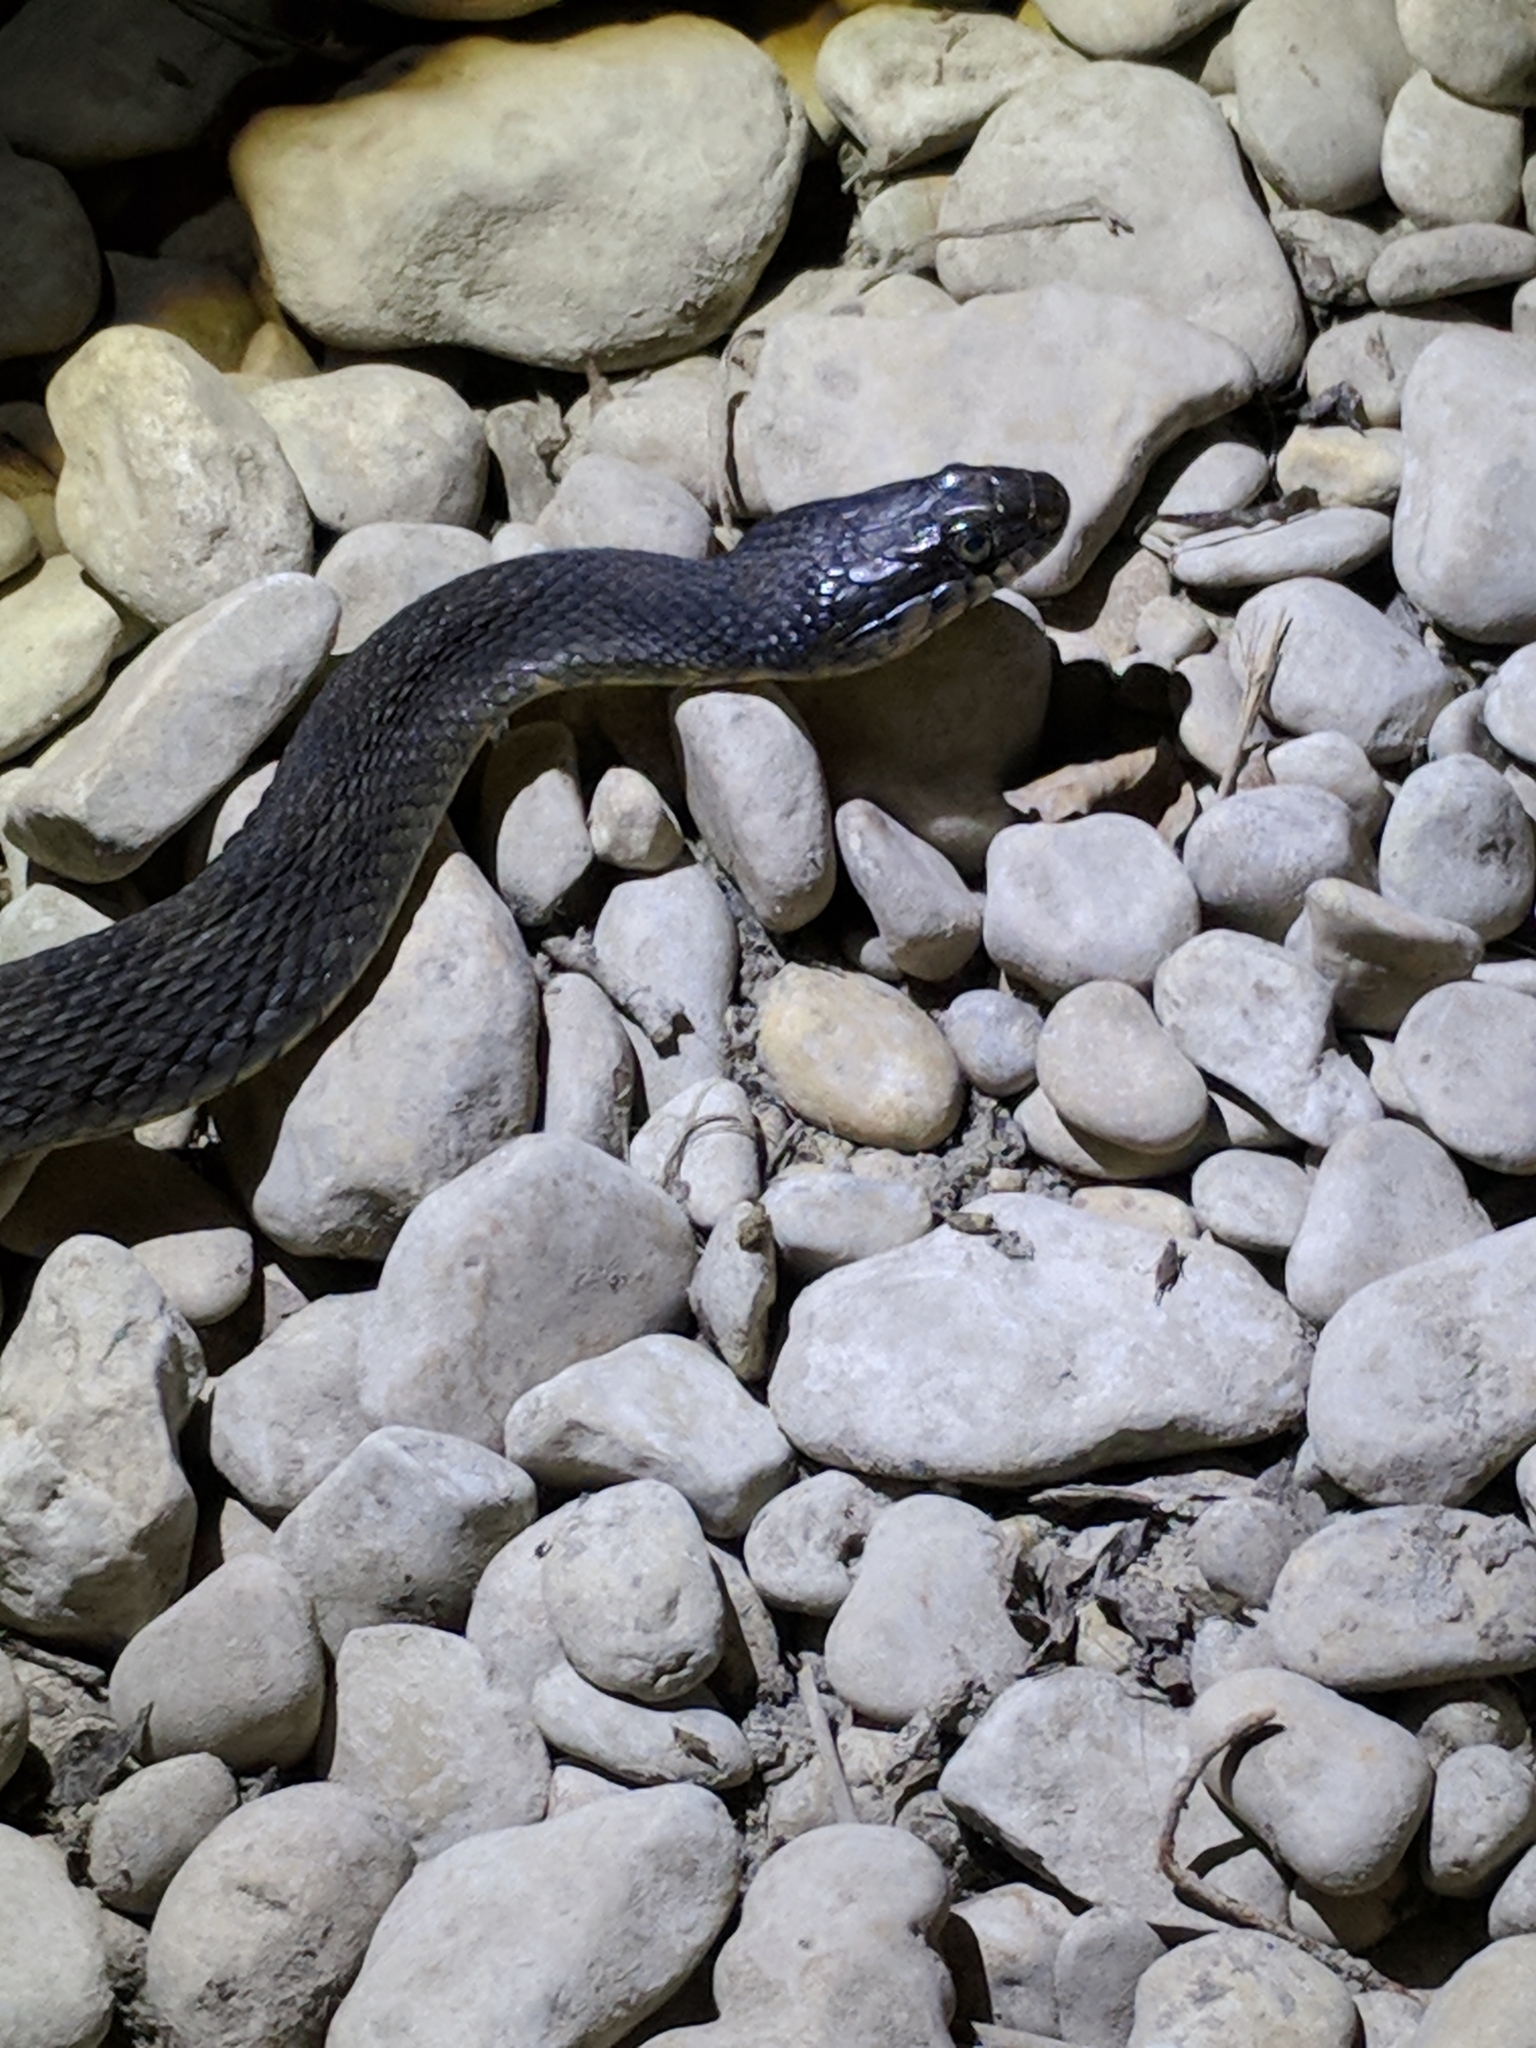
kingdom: Animalia
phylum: Chordata
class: Squamata
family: Colubridae
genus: Nerodia
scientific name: Nerodia erythrogaster
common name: Plainbelly water snake
